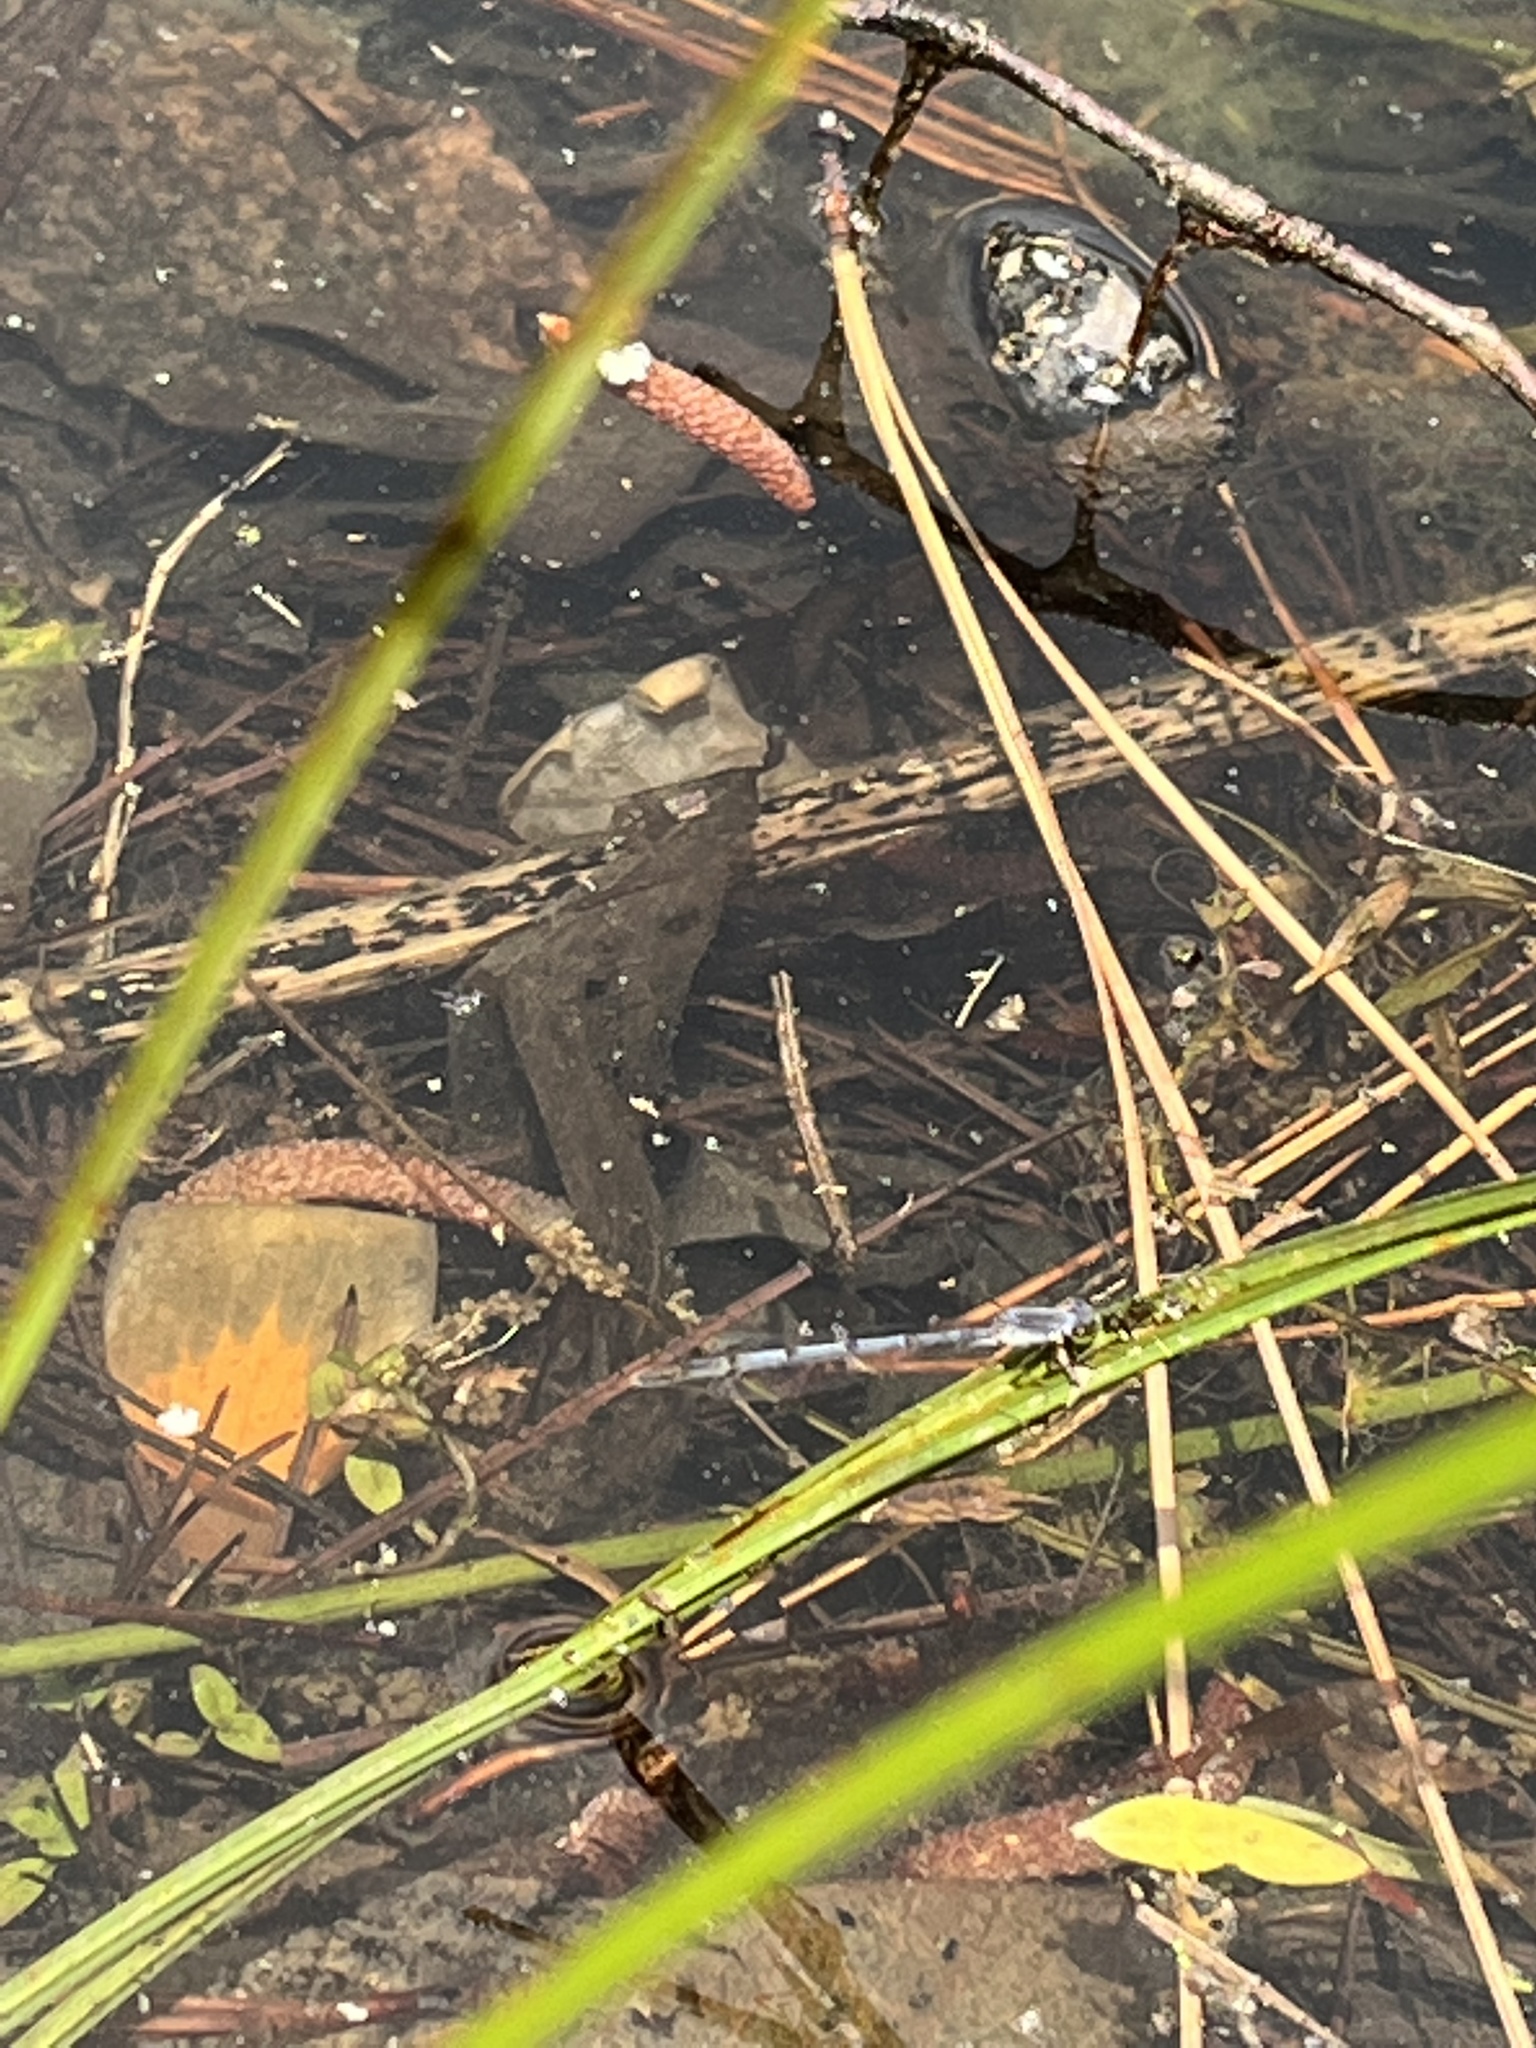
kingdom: Animalia
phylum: Arthropoda
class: Insecta
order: Odonata
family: Coenagrionidae
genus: Ischnura
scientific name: Ischnura posita
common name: Fragile forktail
